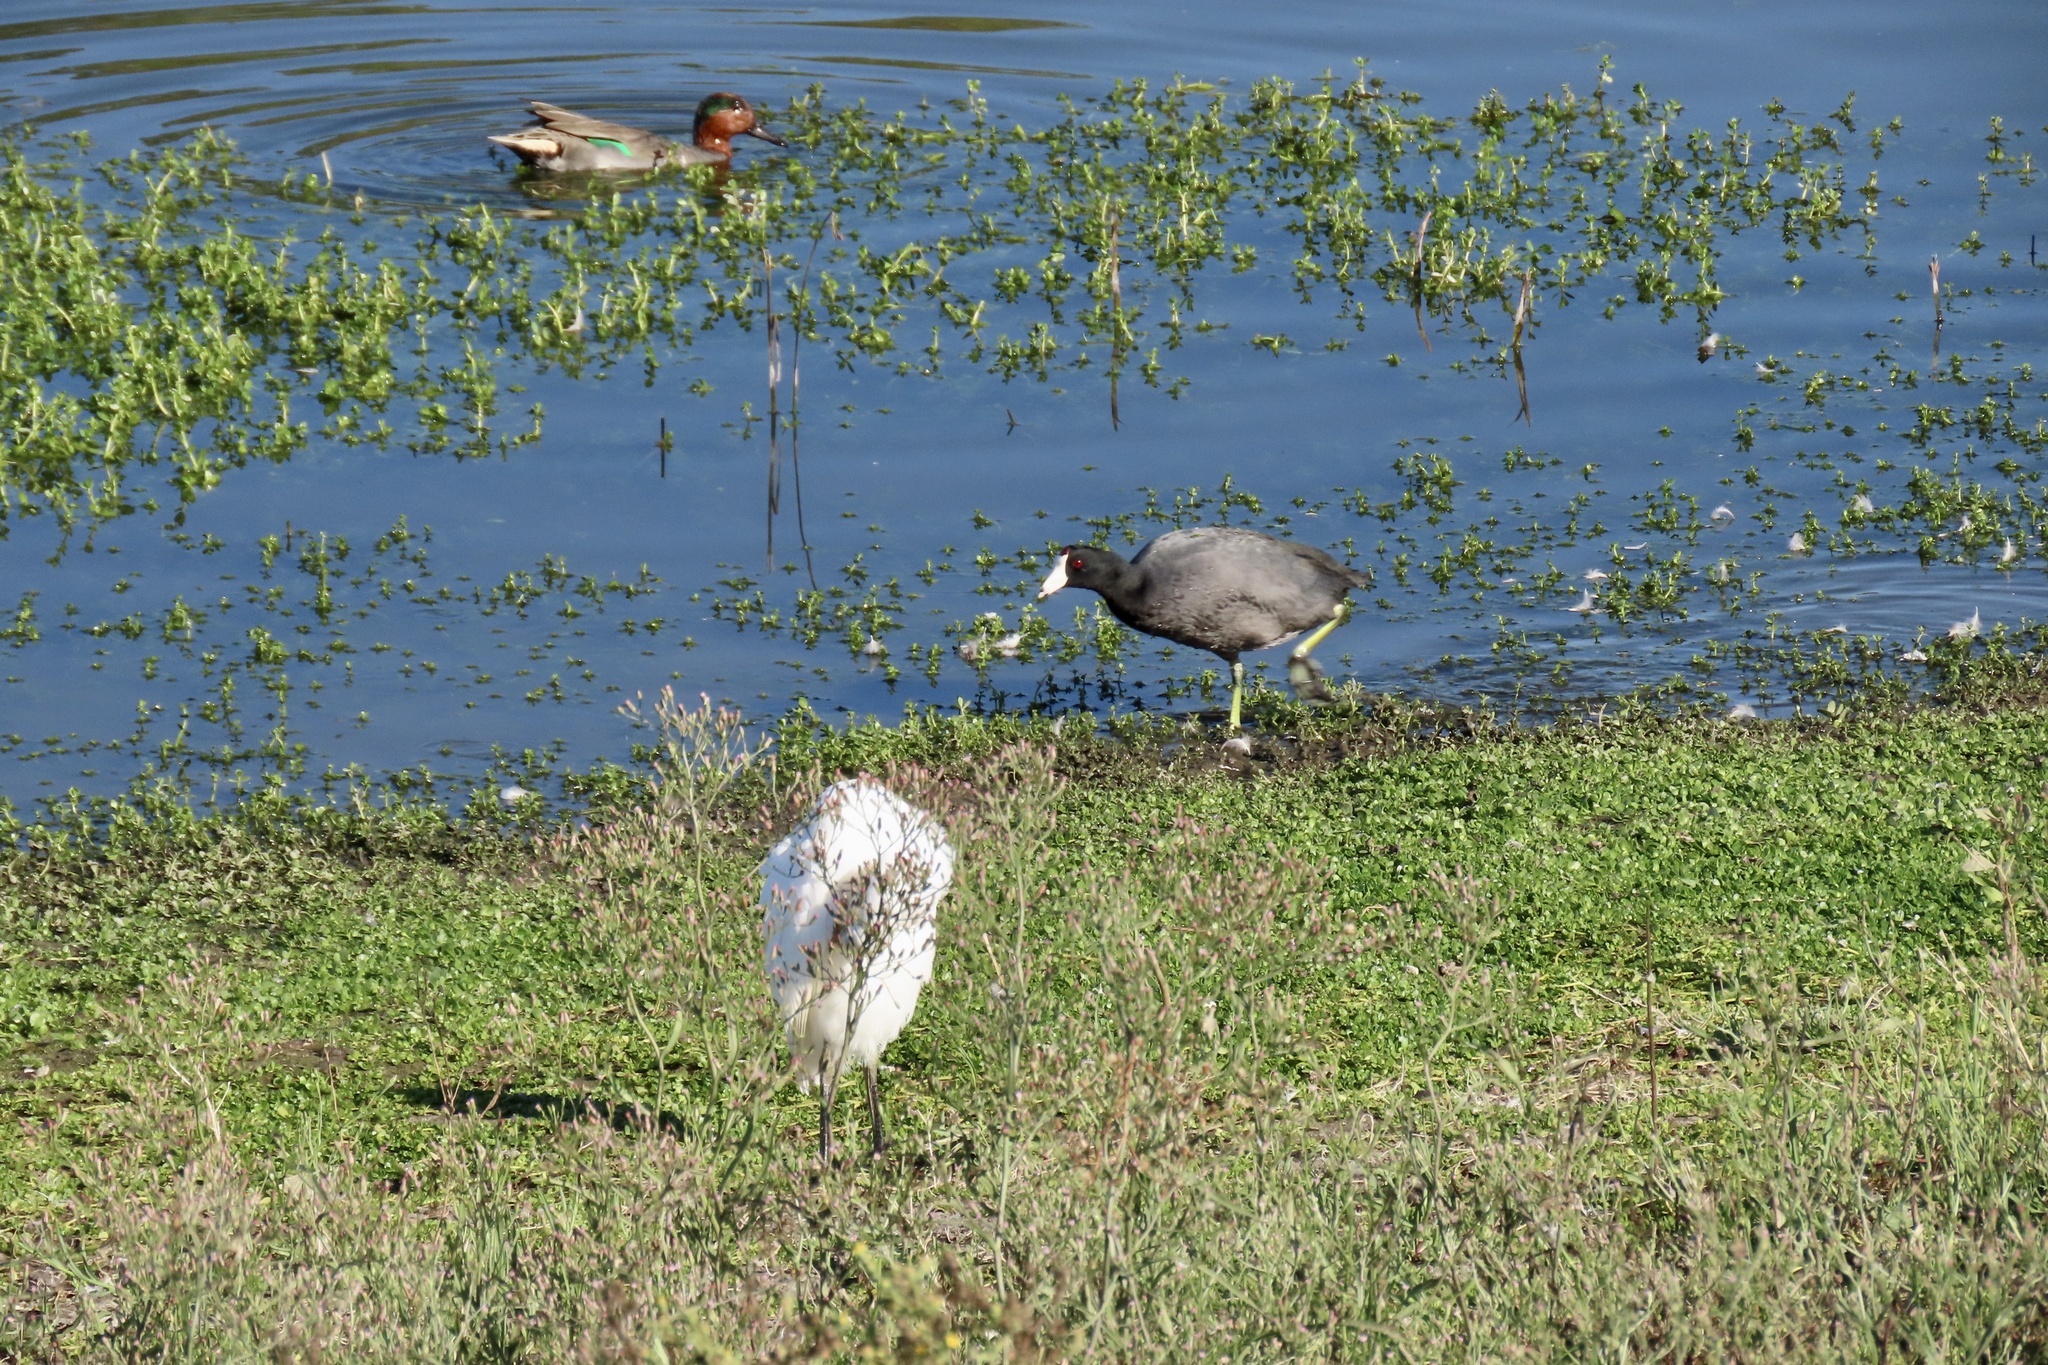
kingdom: Animalia
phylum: Chordata
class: Aves
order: Pelecaniformes
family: Ardeidae
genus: Bubulcus
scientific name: Bubulcus ibis
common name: Cattle egret
